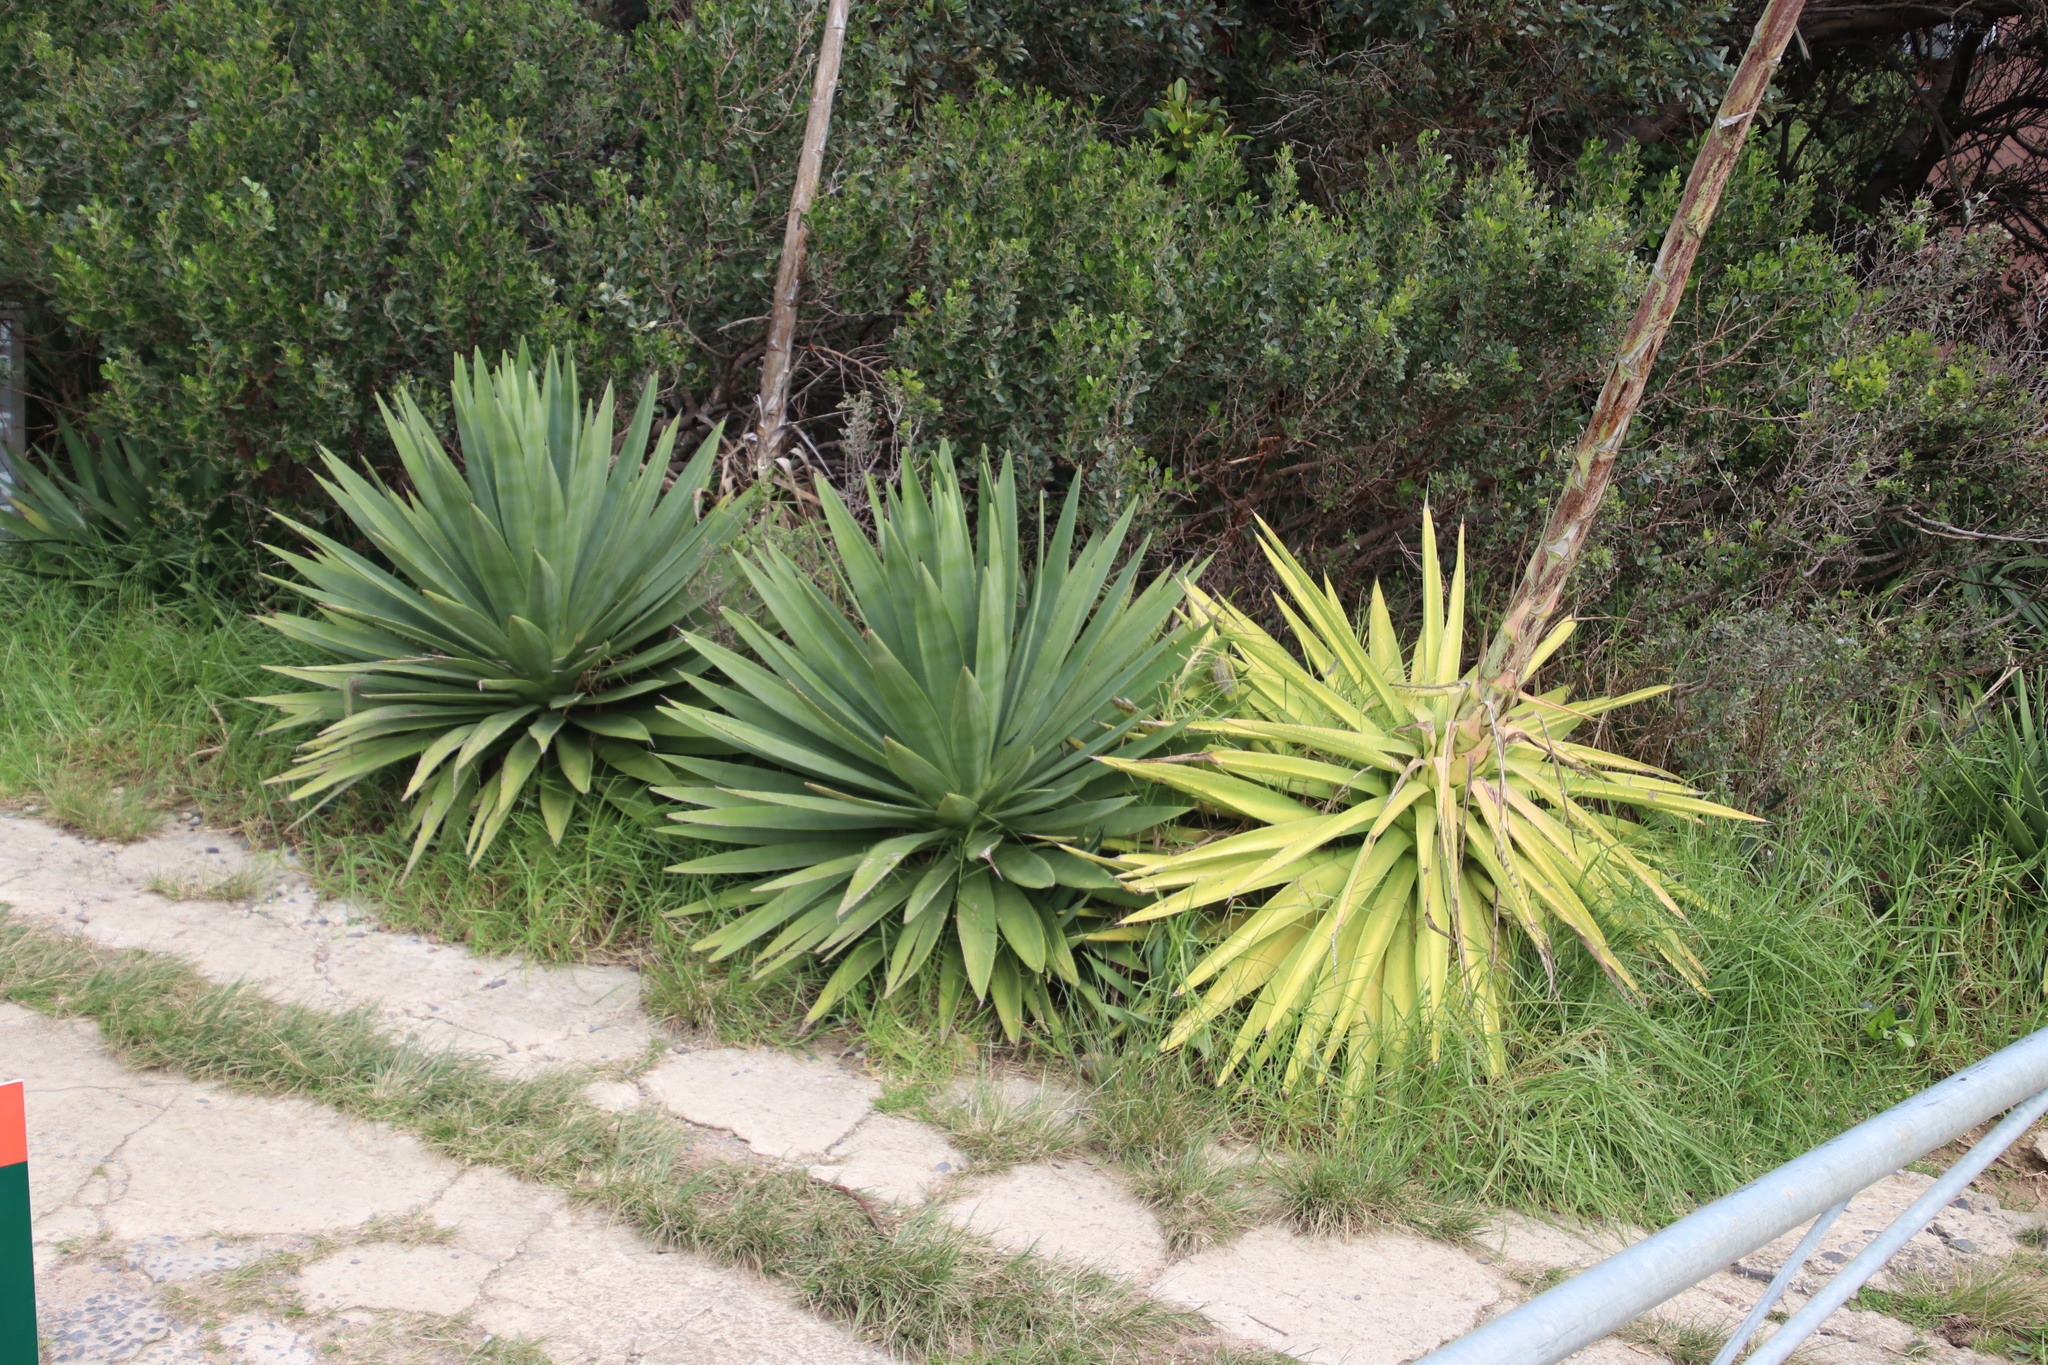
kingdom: Plantae
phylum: Tracheophyta
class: Liliopsida
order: Asparagales
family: Asparagaceae
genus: Agave
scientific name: Agave angustifolia
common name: Mescal agave
